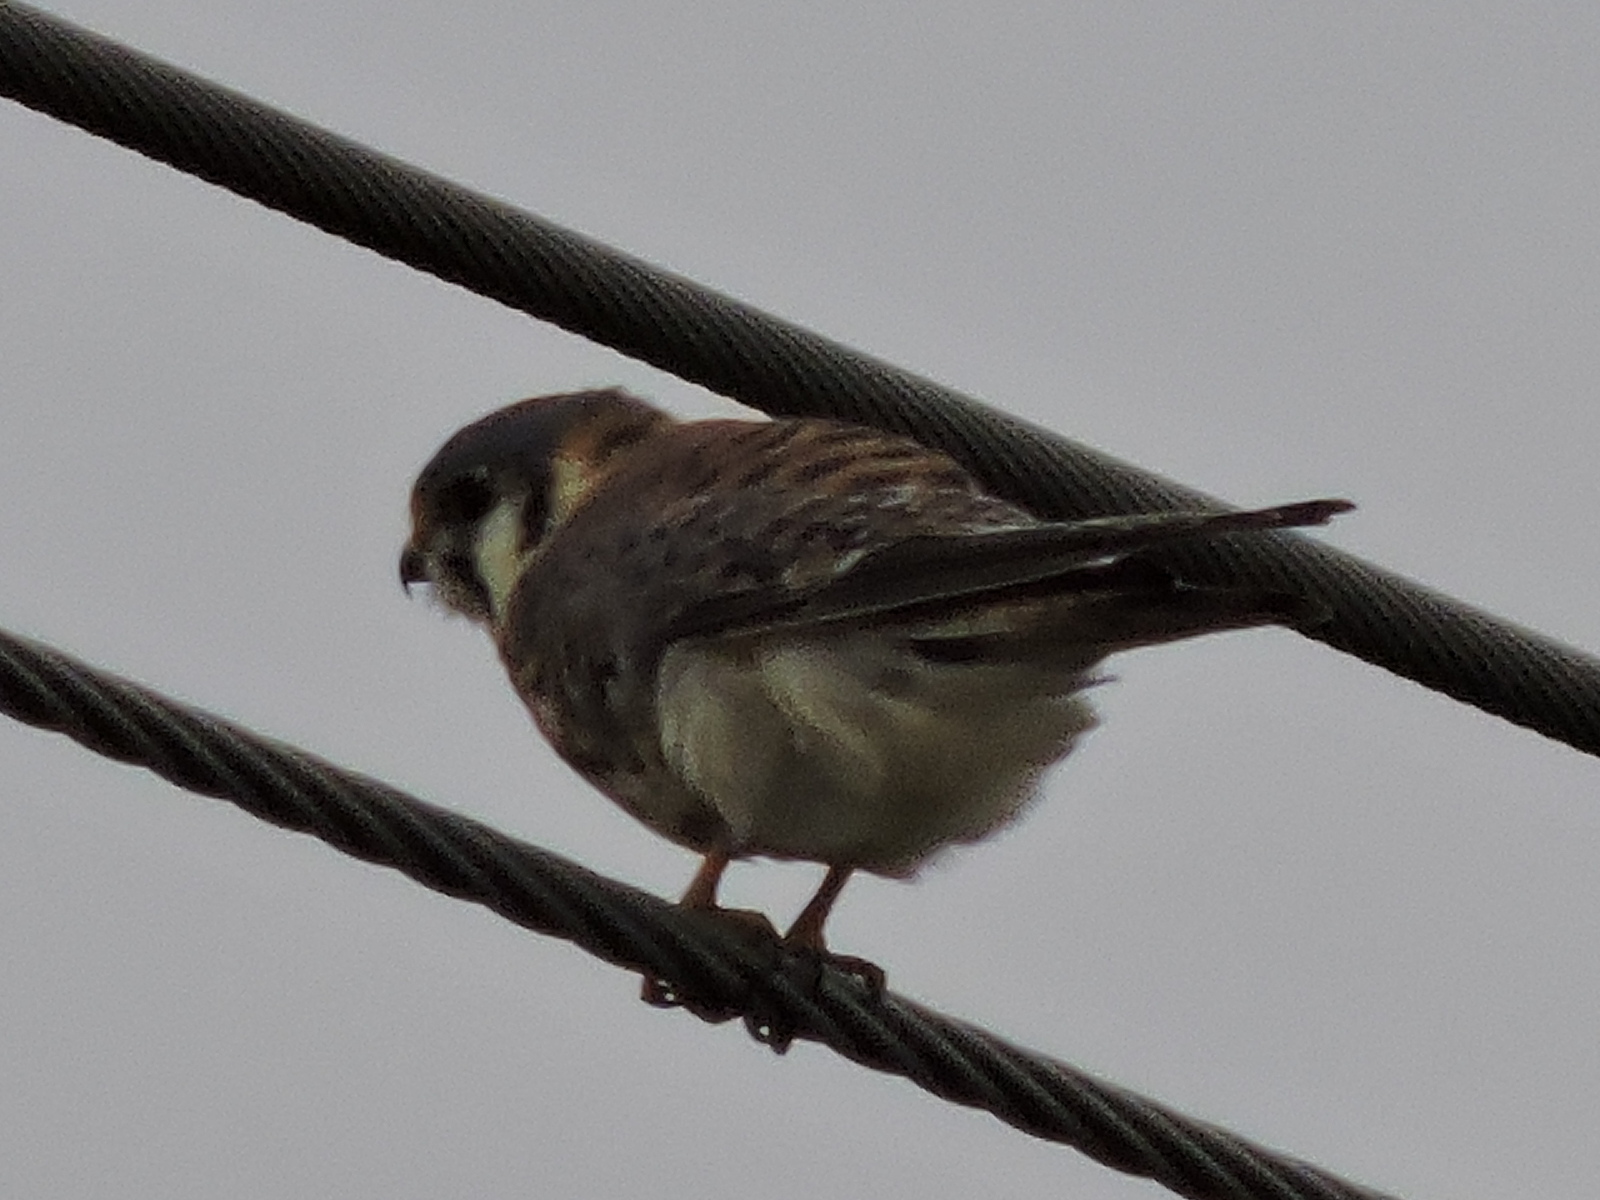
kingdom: Animalia
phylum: Chordata
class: Aves
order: Falconiformes
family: Falconidae
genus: Falco
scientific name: Falco sparverius
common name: American kestrel
